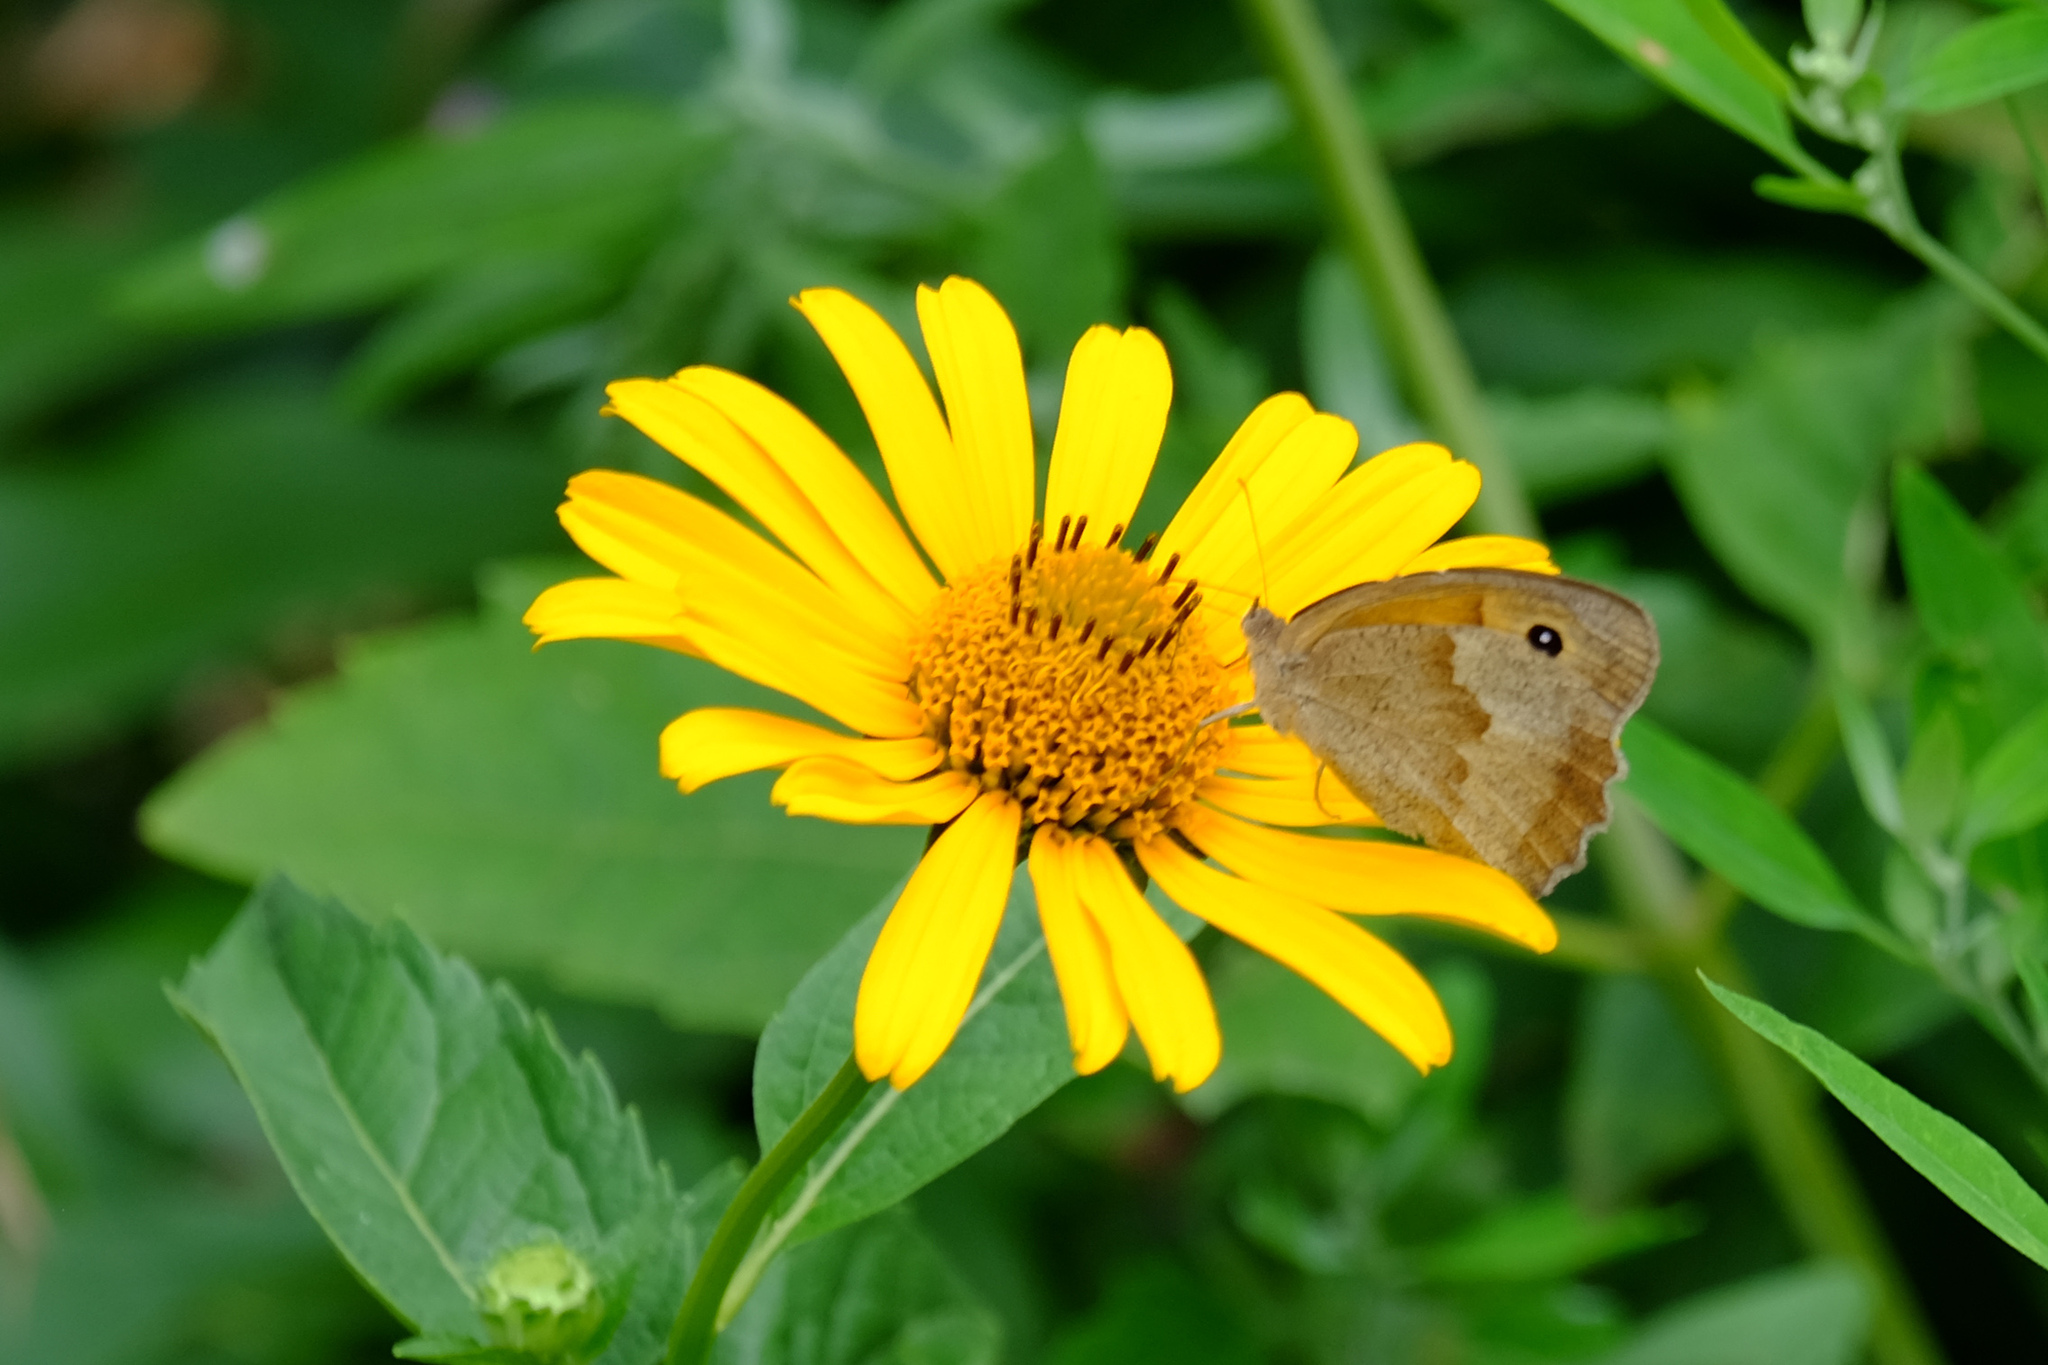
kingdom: Animalia
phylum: Arthropoda
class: Insecta
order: Lepidoptera
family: Nymphalidae
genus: Maniola
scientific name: Maniola jurtina
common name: Meadow brown
